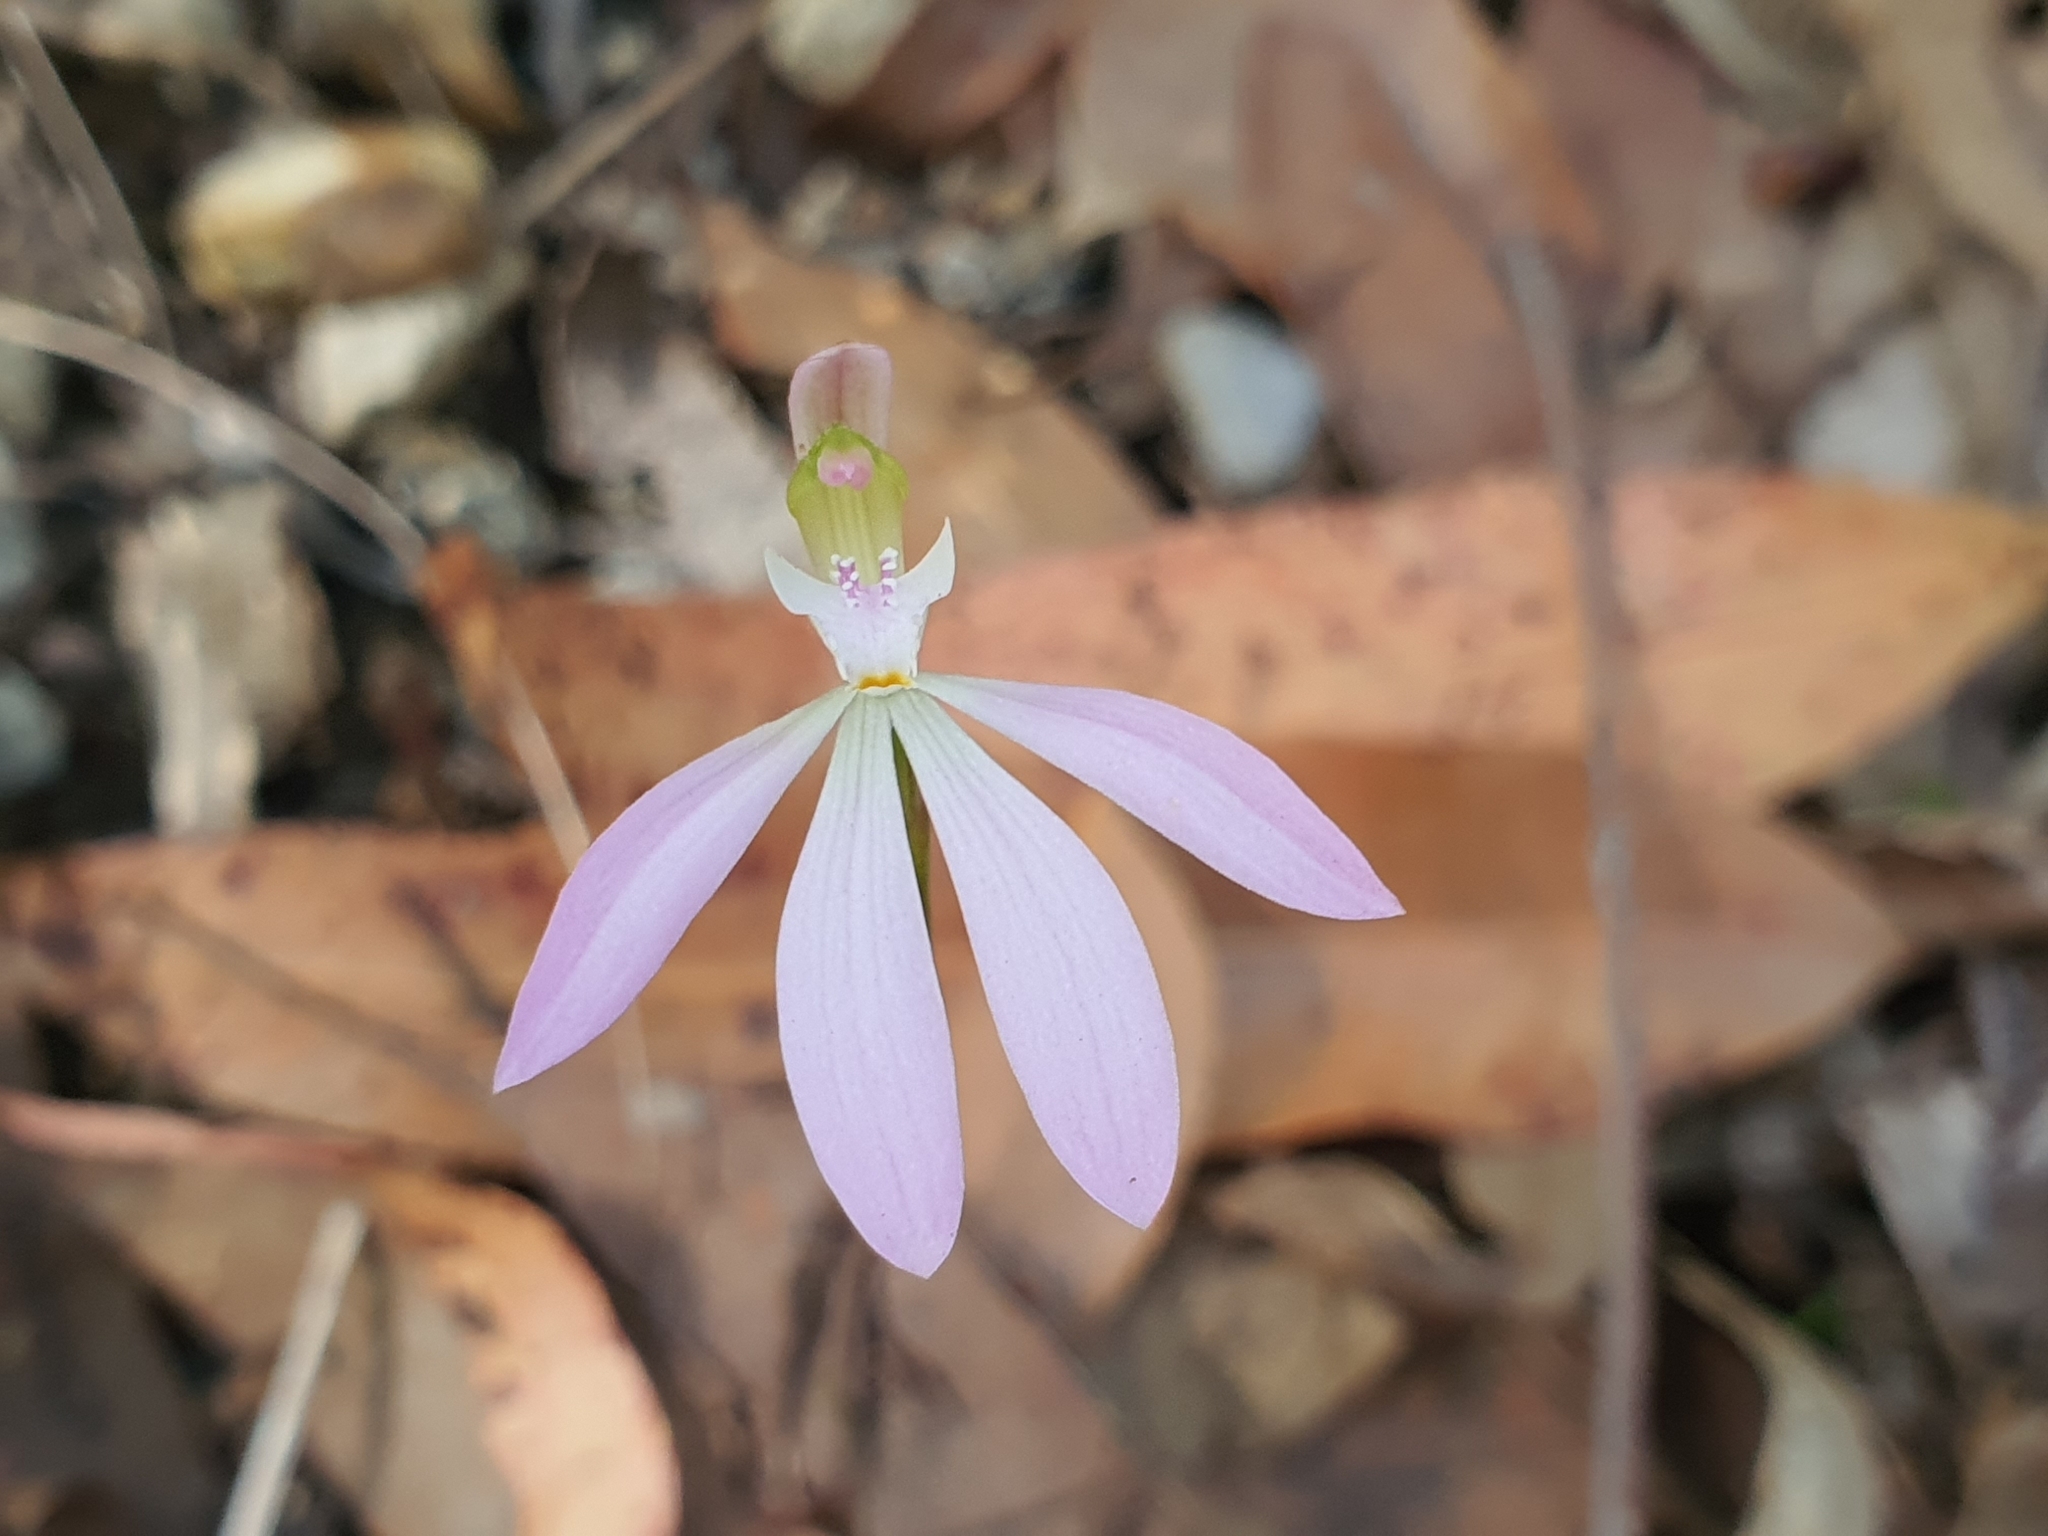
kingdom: Plantae
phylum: Tracheophyta
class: Liliopsida
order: Asparagales
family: Orchidaceae
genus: Caladenia
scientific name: Caladenia catenata
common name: White caladenia
